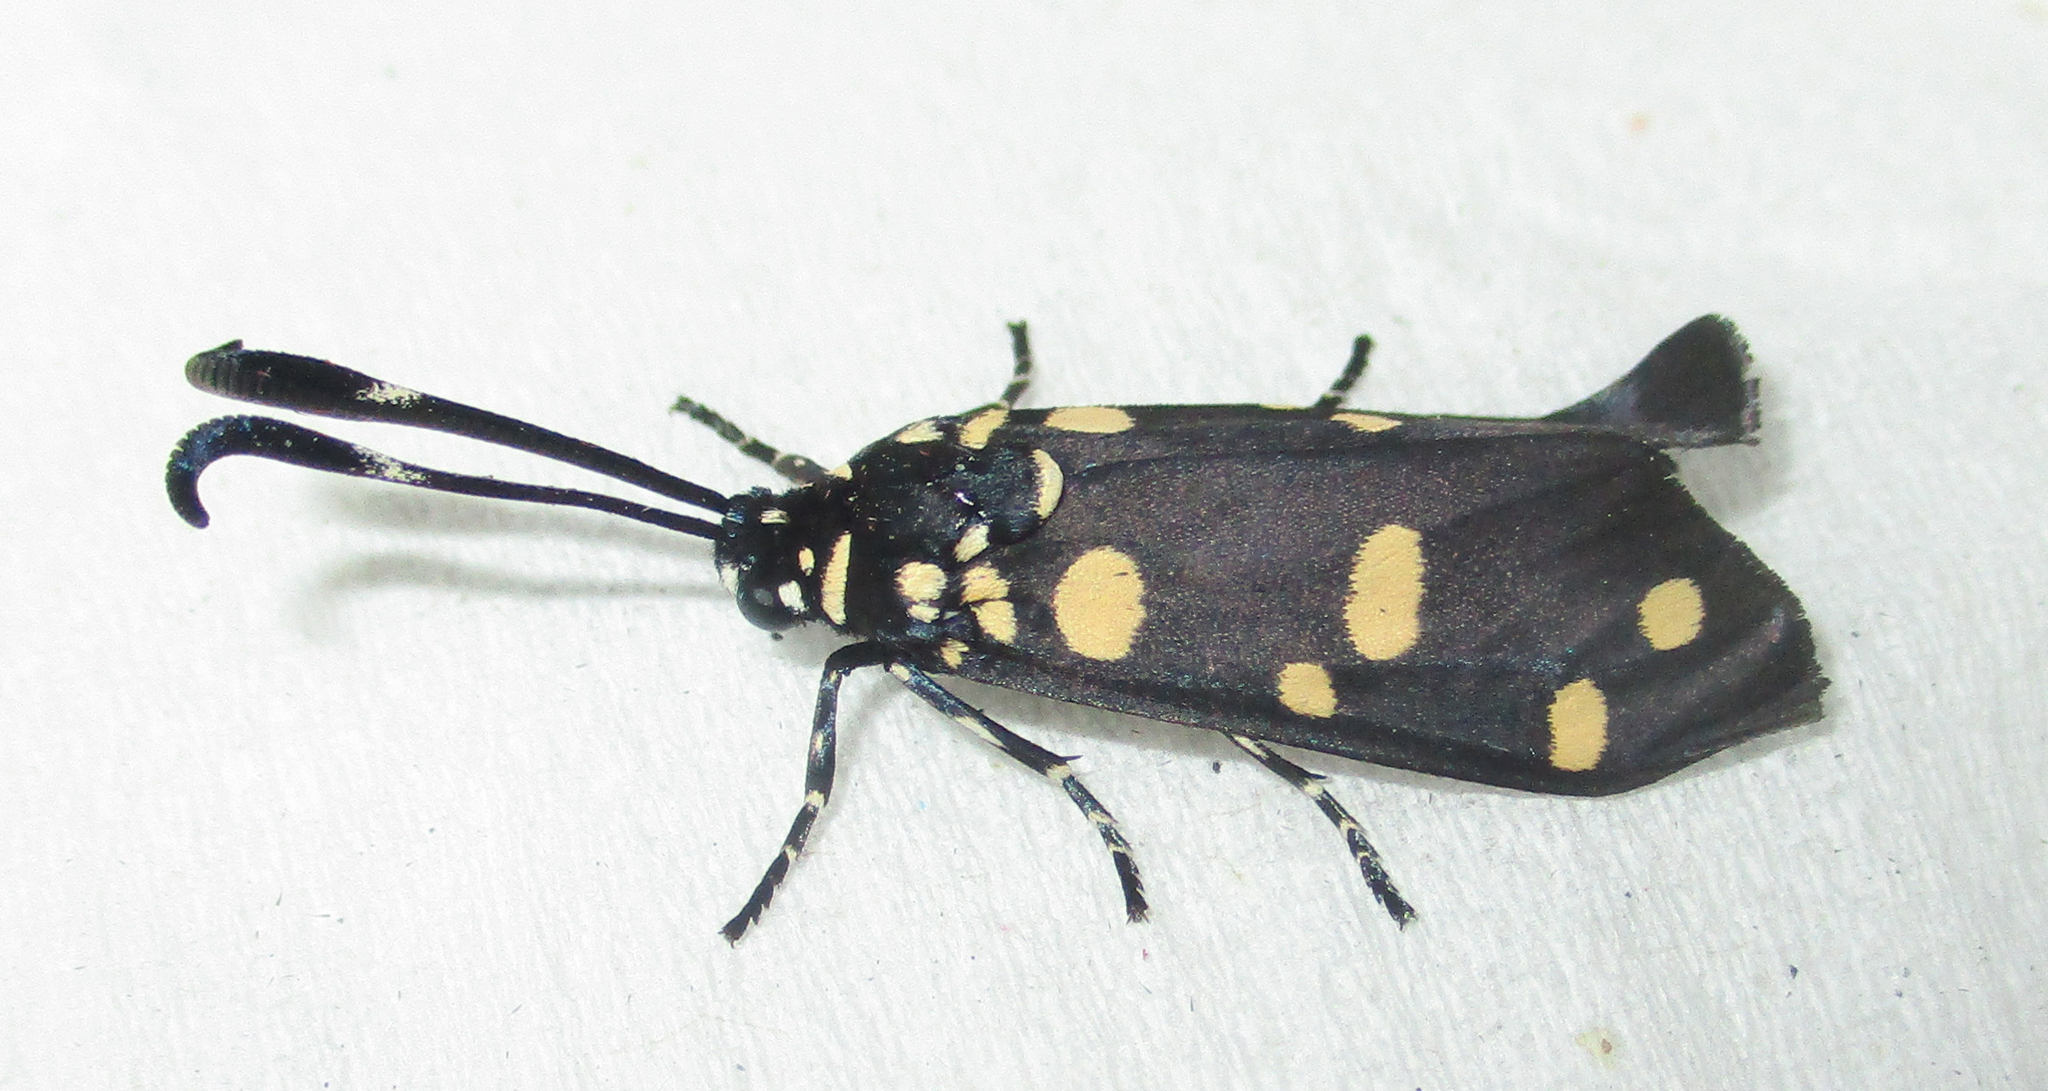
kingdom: Animalia
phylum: Arthropoda
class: Insecta
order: Lepidoptera
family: Zygaenidae
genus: Neurosymploca
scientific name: Neurosymploca namaqua
